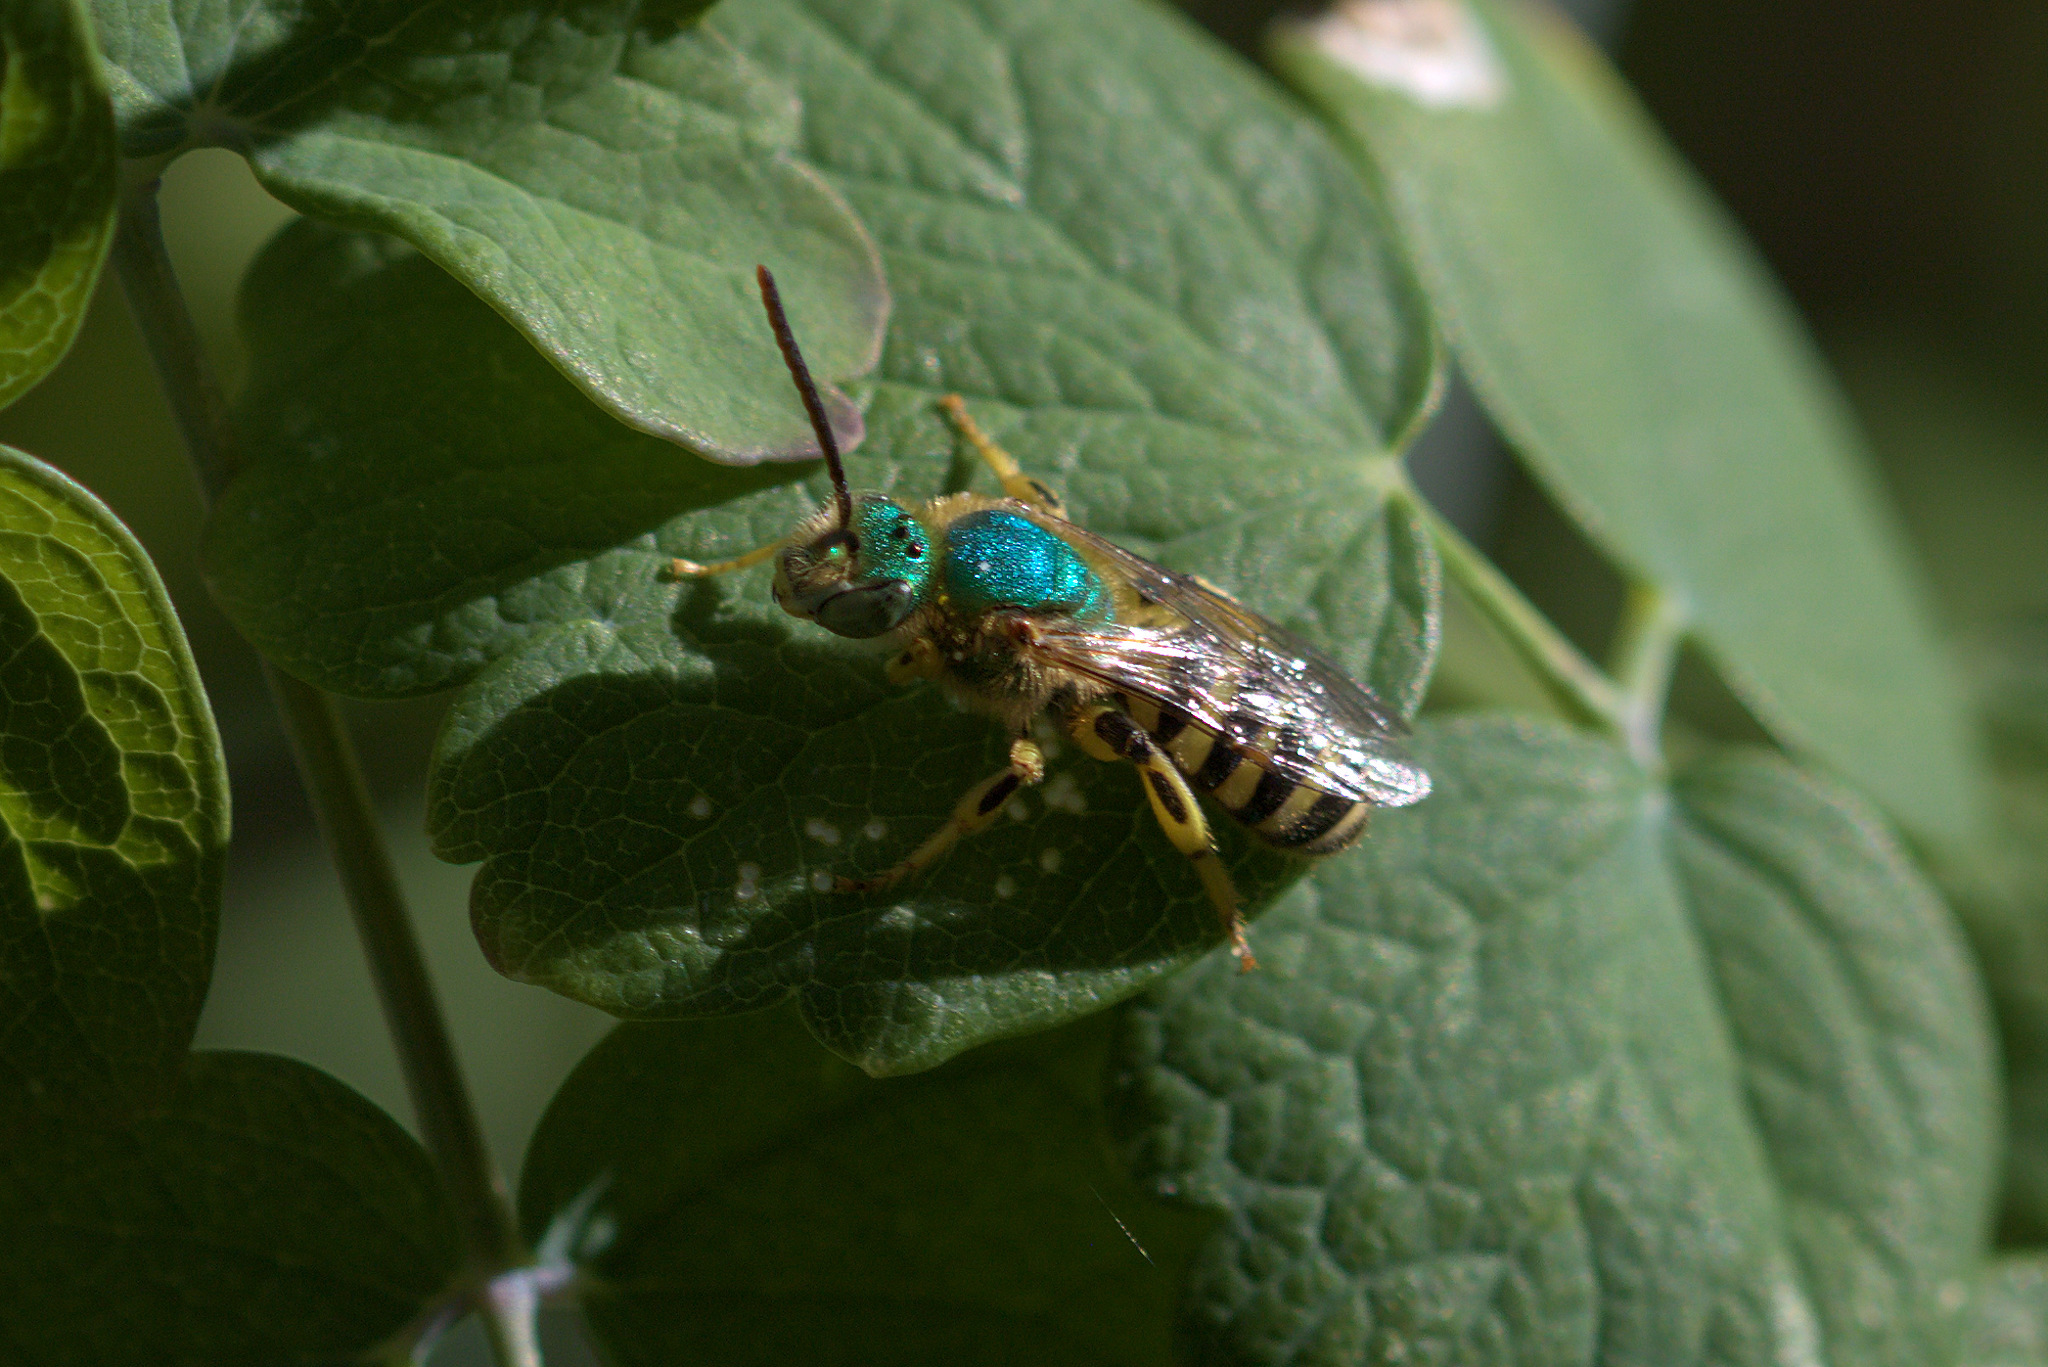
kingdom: Animalia
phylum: Arthropoda
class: Insecta
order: Hymenoptera
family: Halictidae
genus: Agapostemon
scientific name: Agapostemon texanus
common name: Texas striped sweat bee
